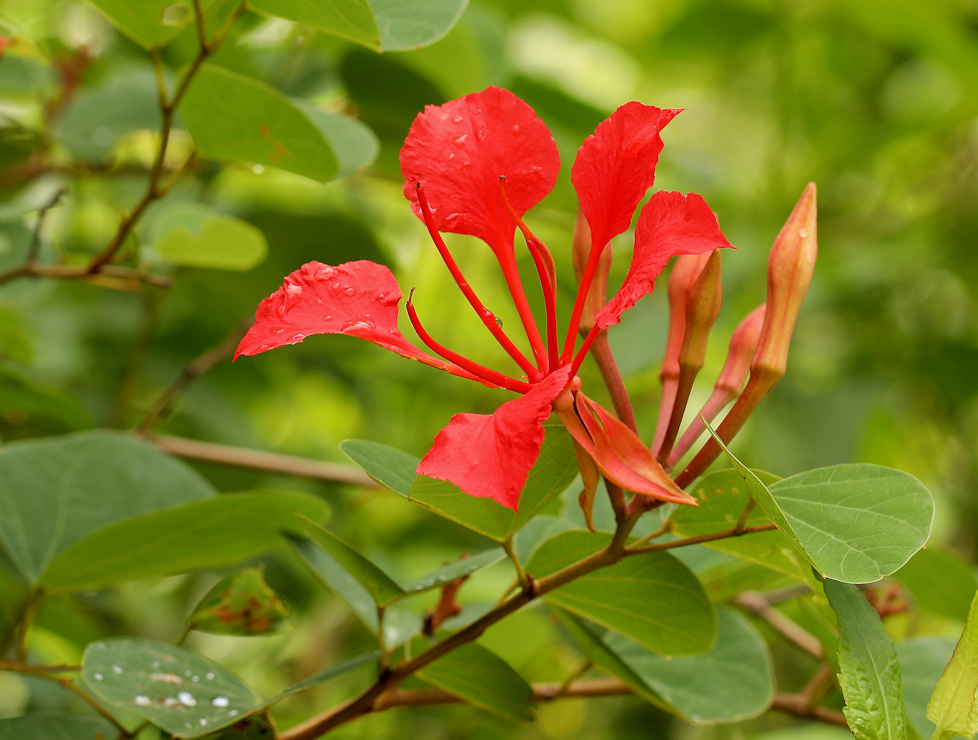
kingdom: Plantae
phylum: Tracheophyta
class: Magnoliopsida
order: Fabales
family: Fabaceae
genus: Bauhinia
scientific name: Bauhinia galpinii
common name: African plume
